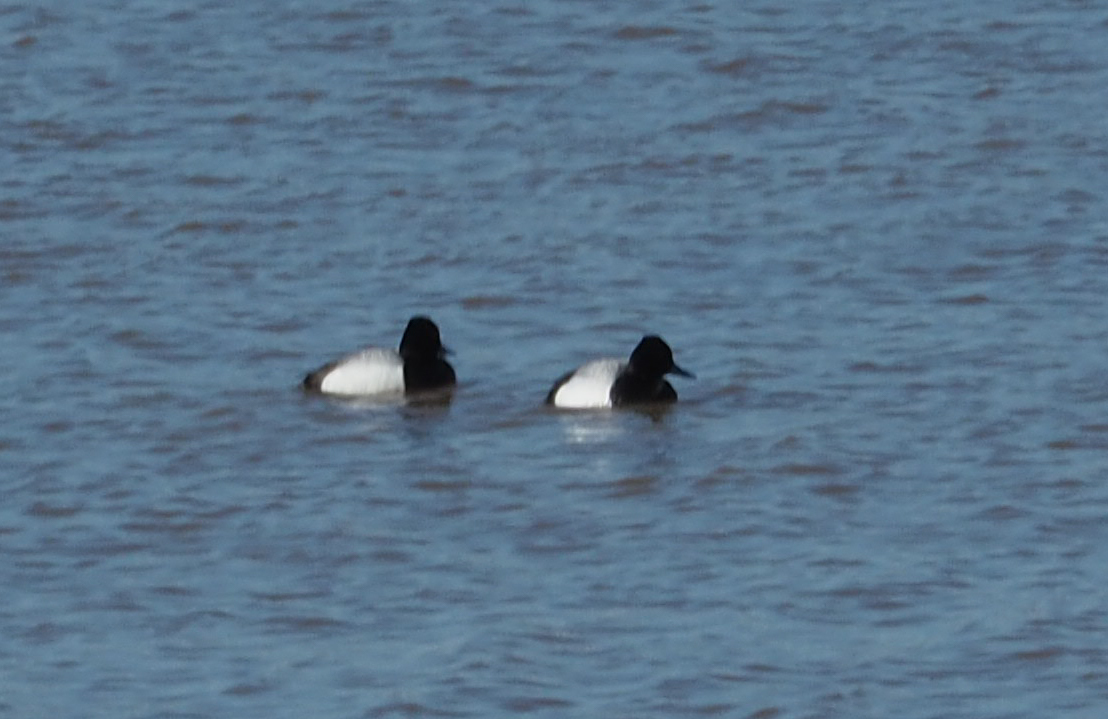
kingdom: Animalia
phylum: Chordata
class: Aves
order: Anseriformes
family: Anatidae
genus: Aythya
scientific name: Aythya affinis
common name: Lesser scaup
